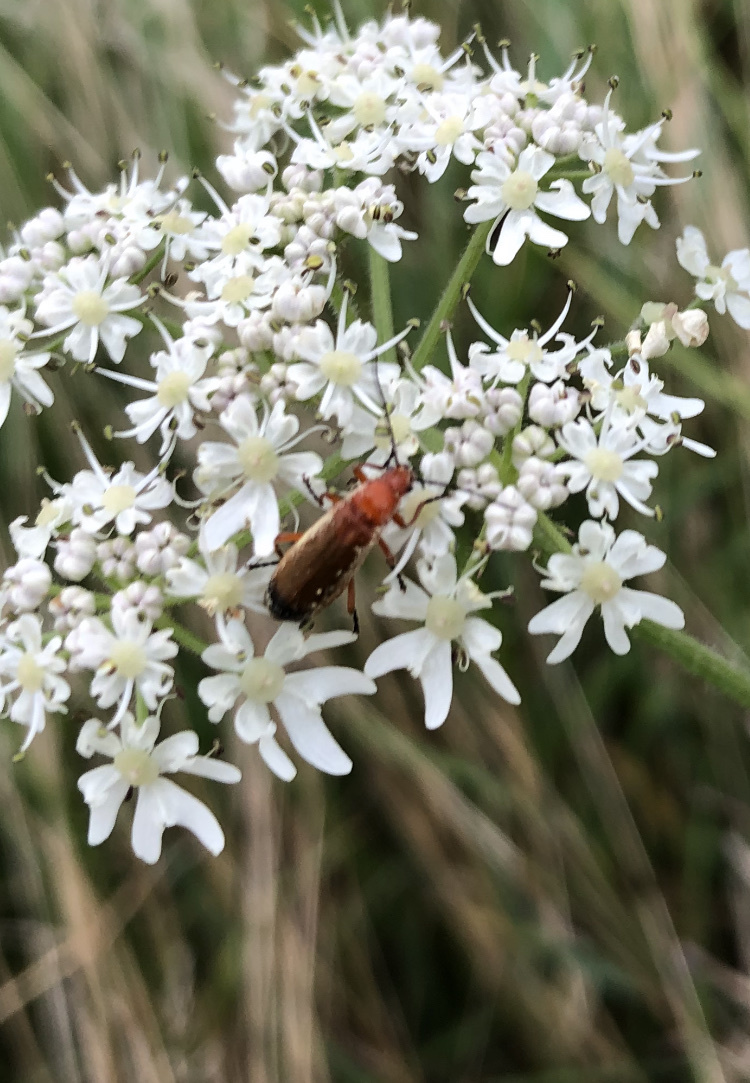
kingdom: Animalia
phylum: Arthropoda
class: Insecta
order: Coleoptera
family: Cantharidae
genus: Rhagonycha
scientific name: Rhagonycha fulva
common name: Common red soldier beetle
